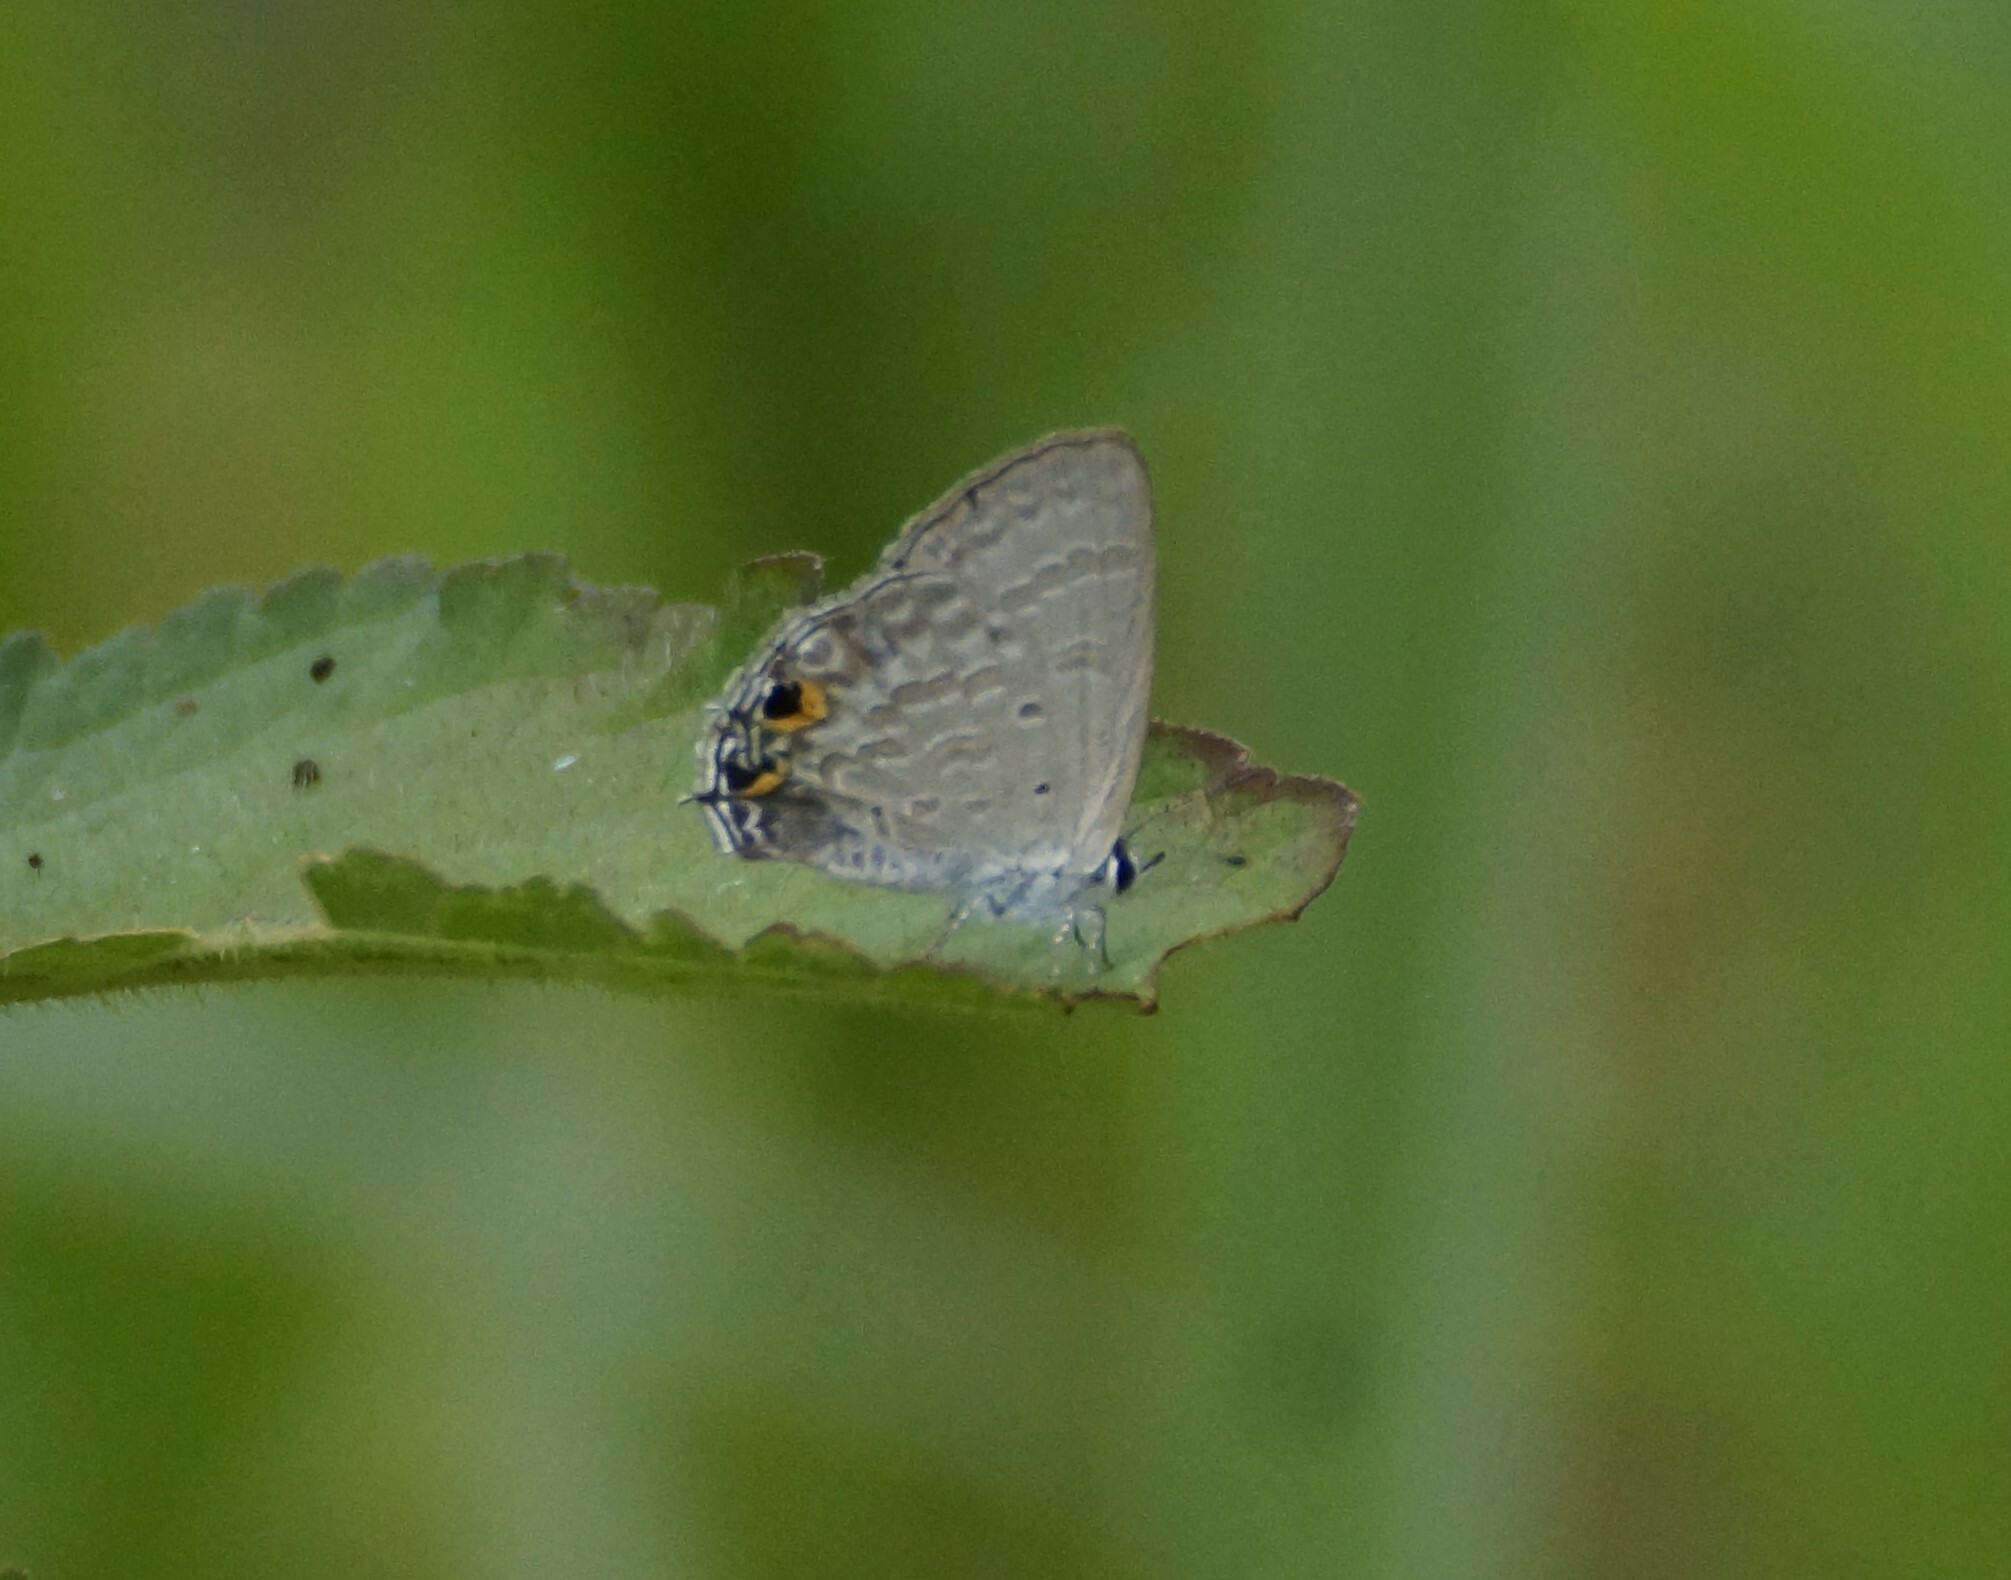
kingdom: Animalia
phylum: Arthropoda
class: Insecta
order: Lepidoptera
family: Lycaenidae
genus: Catochrysops
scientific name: Catochrysops panormus
